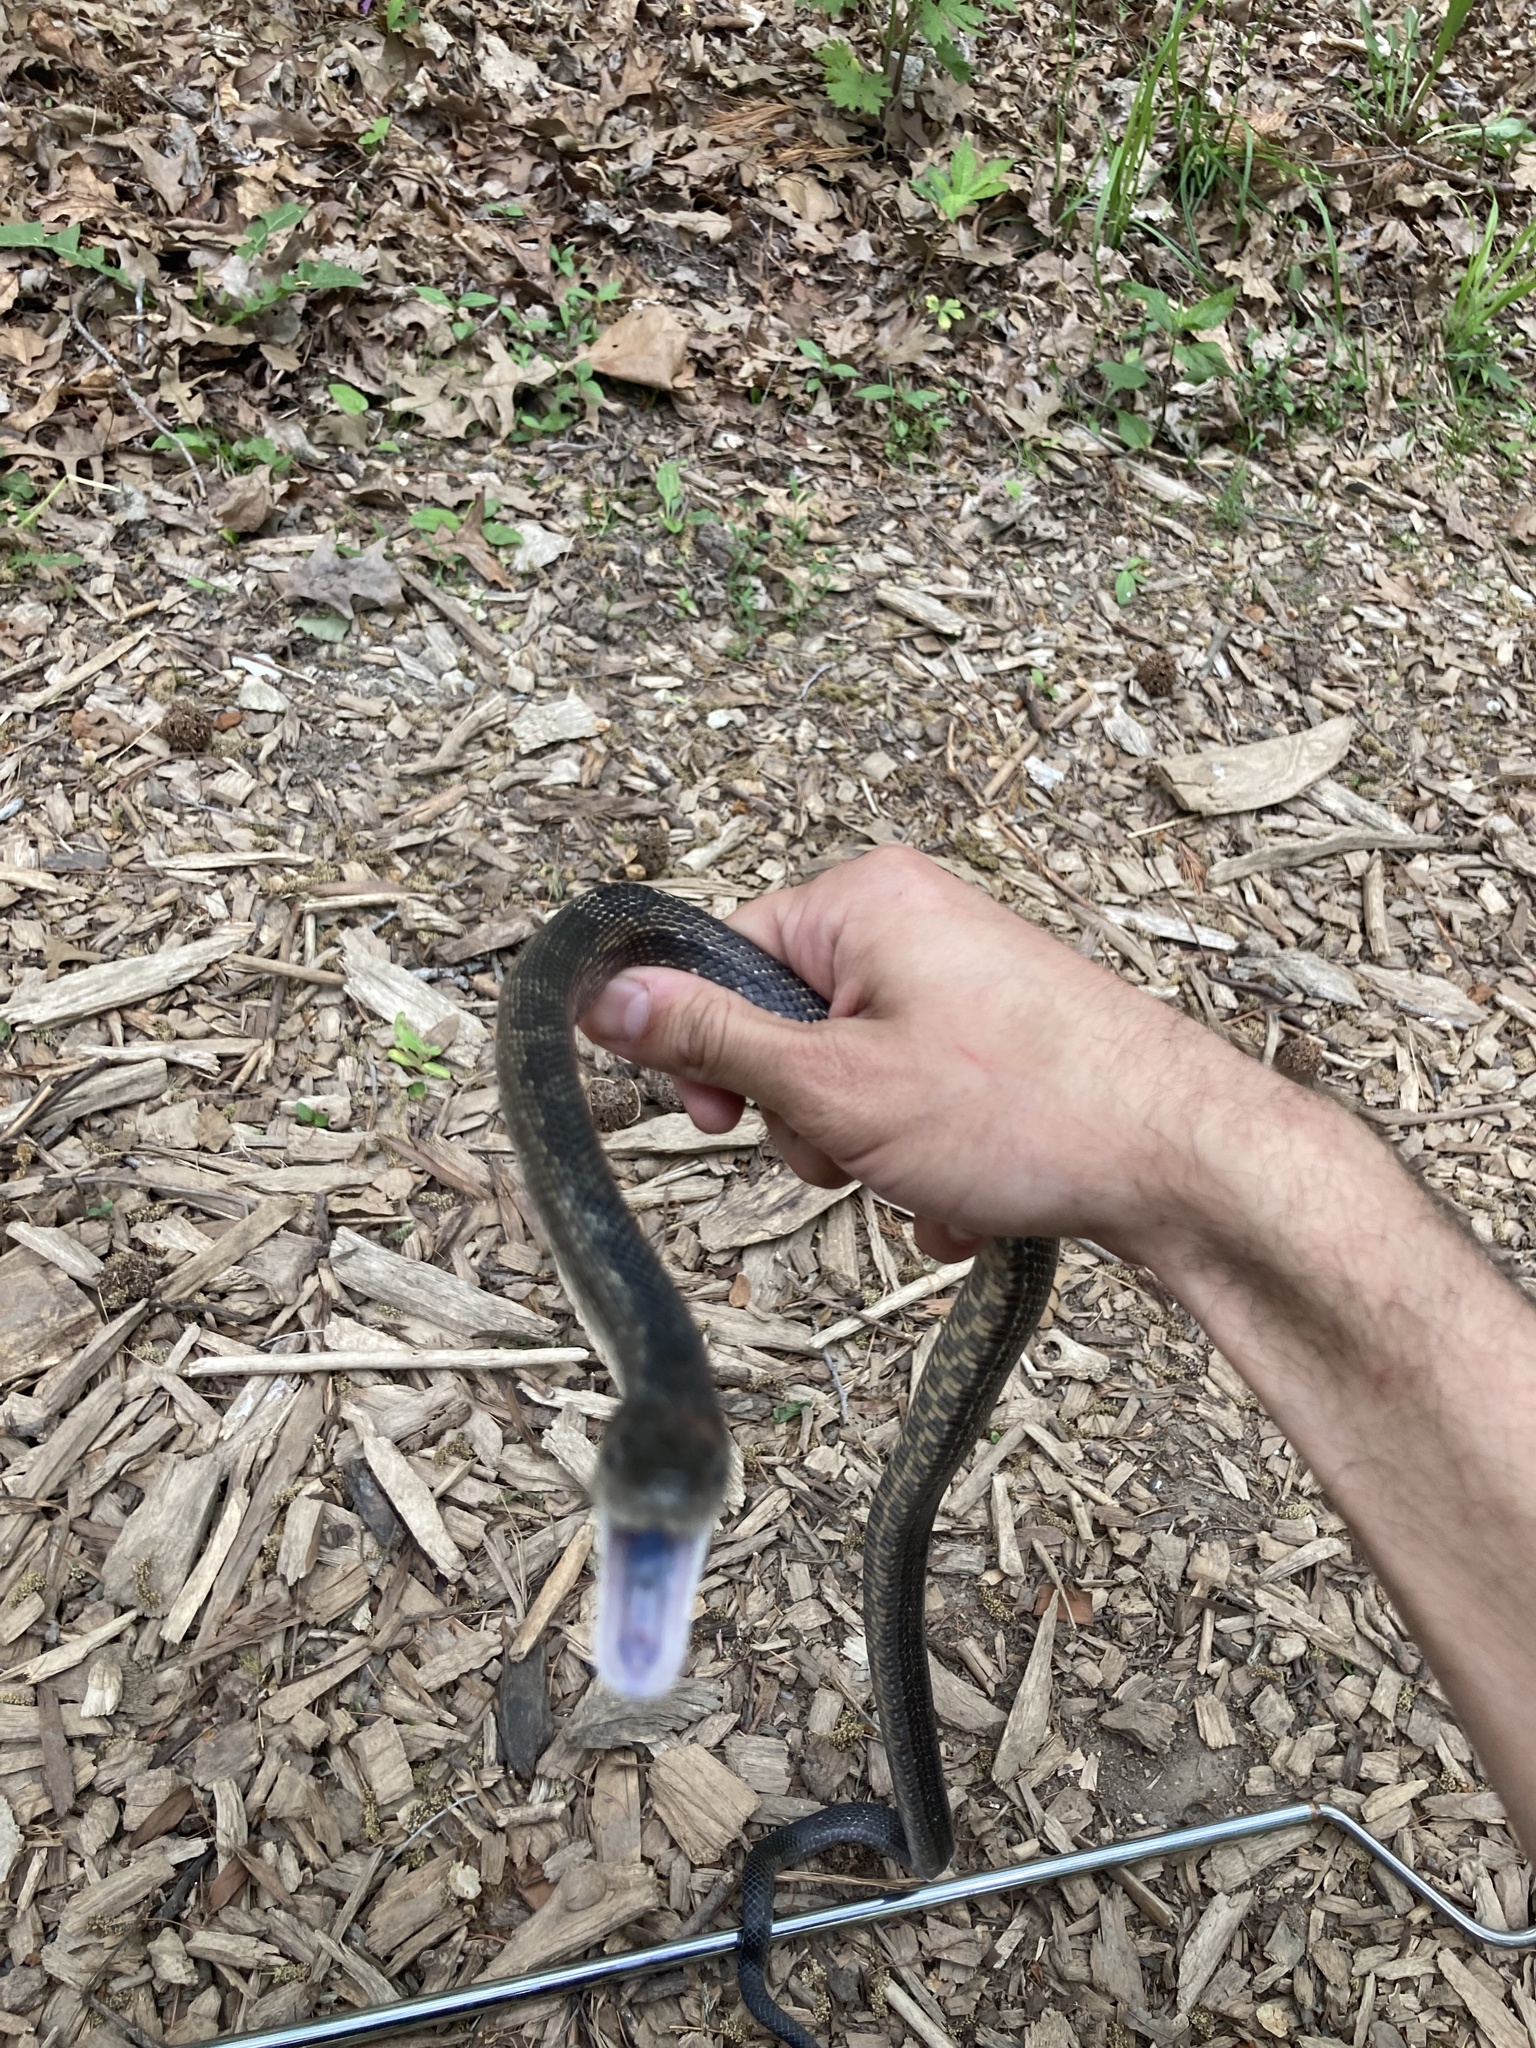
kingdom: Animalia
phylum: Chordata
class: Squamata
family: Colubridae
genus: Pantherophis
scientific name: Pantherophis spiloides
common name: Gray rat snake
